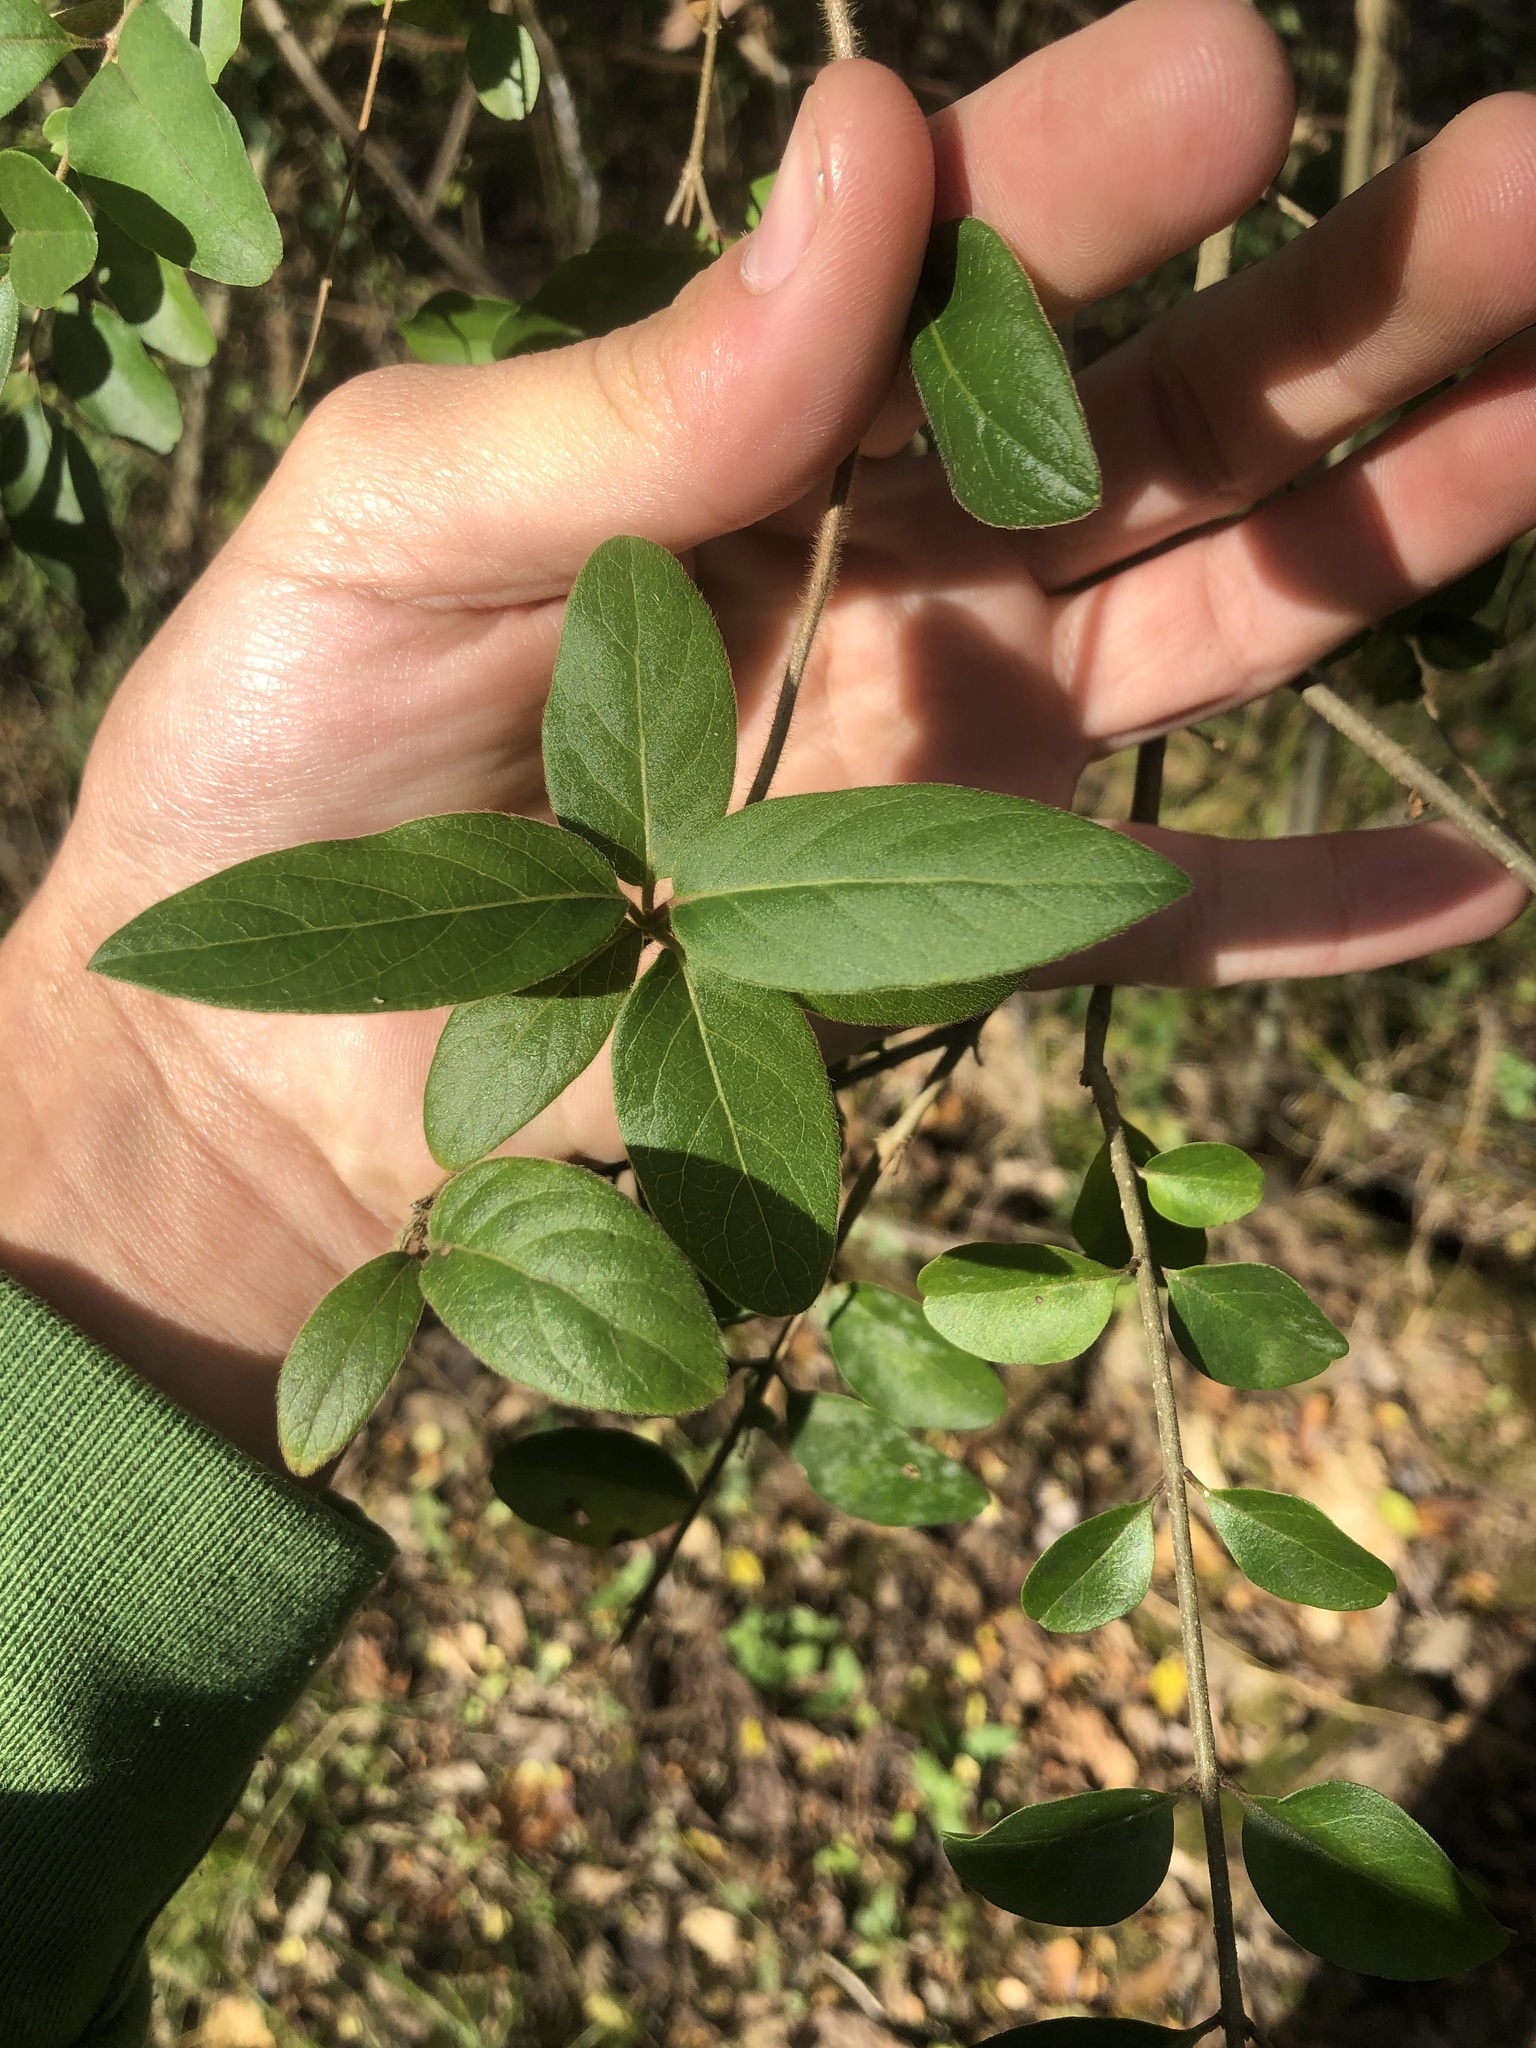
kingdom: Plantae
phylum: Tracheophyta
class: Magnoliopsida
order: Dipsacales
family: Caprifoliaceae
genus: Lonicera
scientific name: Lonicera japonica
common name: Japanese honeysuckle
